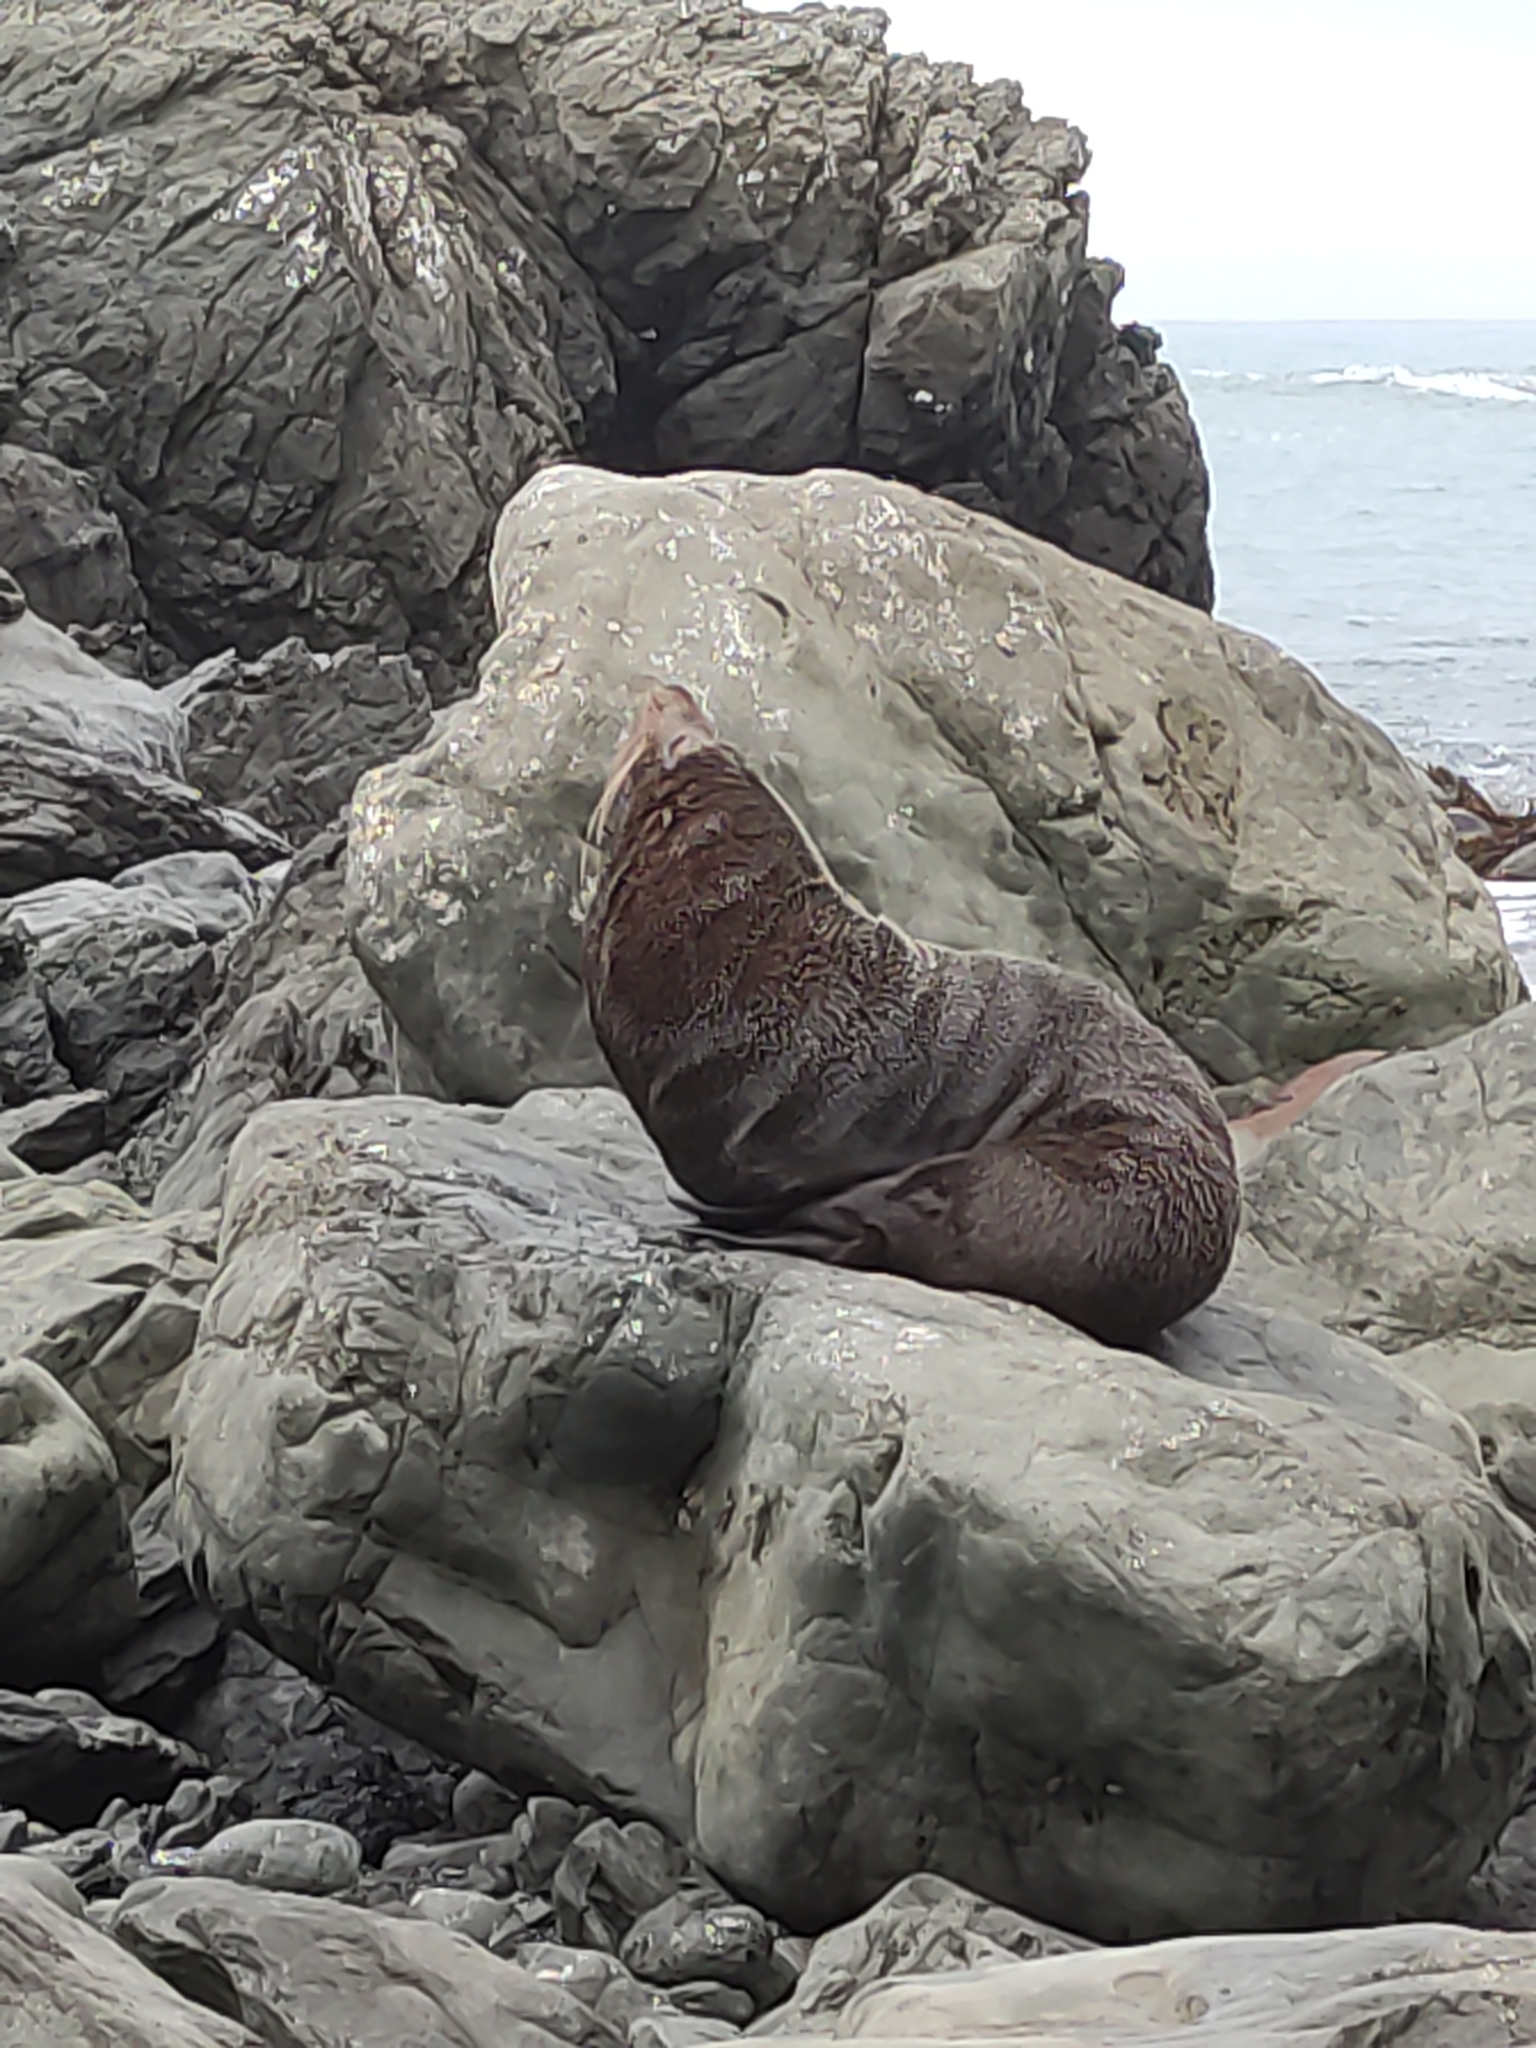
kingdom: Animalia
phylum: Chordata
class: Mammalia
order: Carnivora
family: Otariidae
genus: Arctocephalus
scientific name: Arctocephalus forsteri
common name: New zealand fur seal
